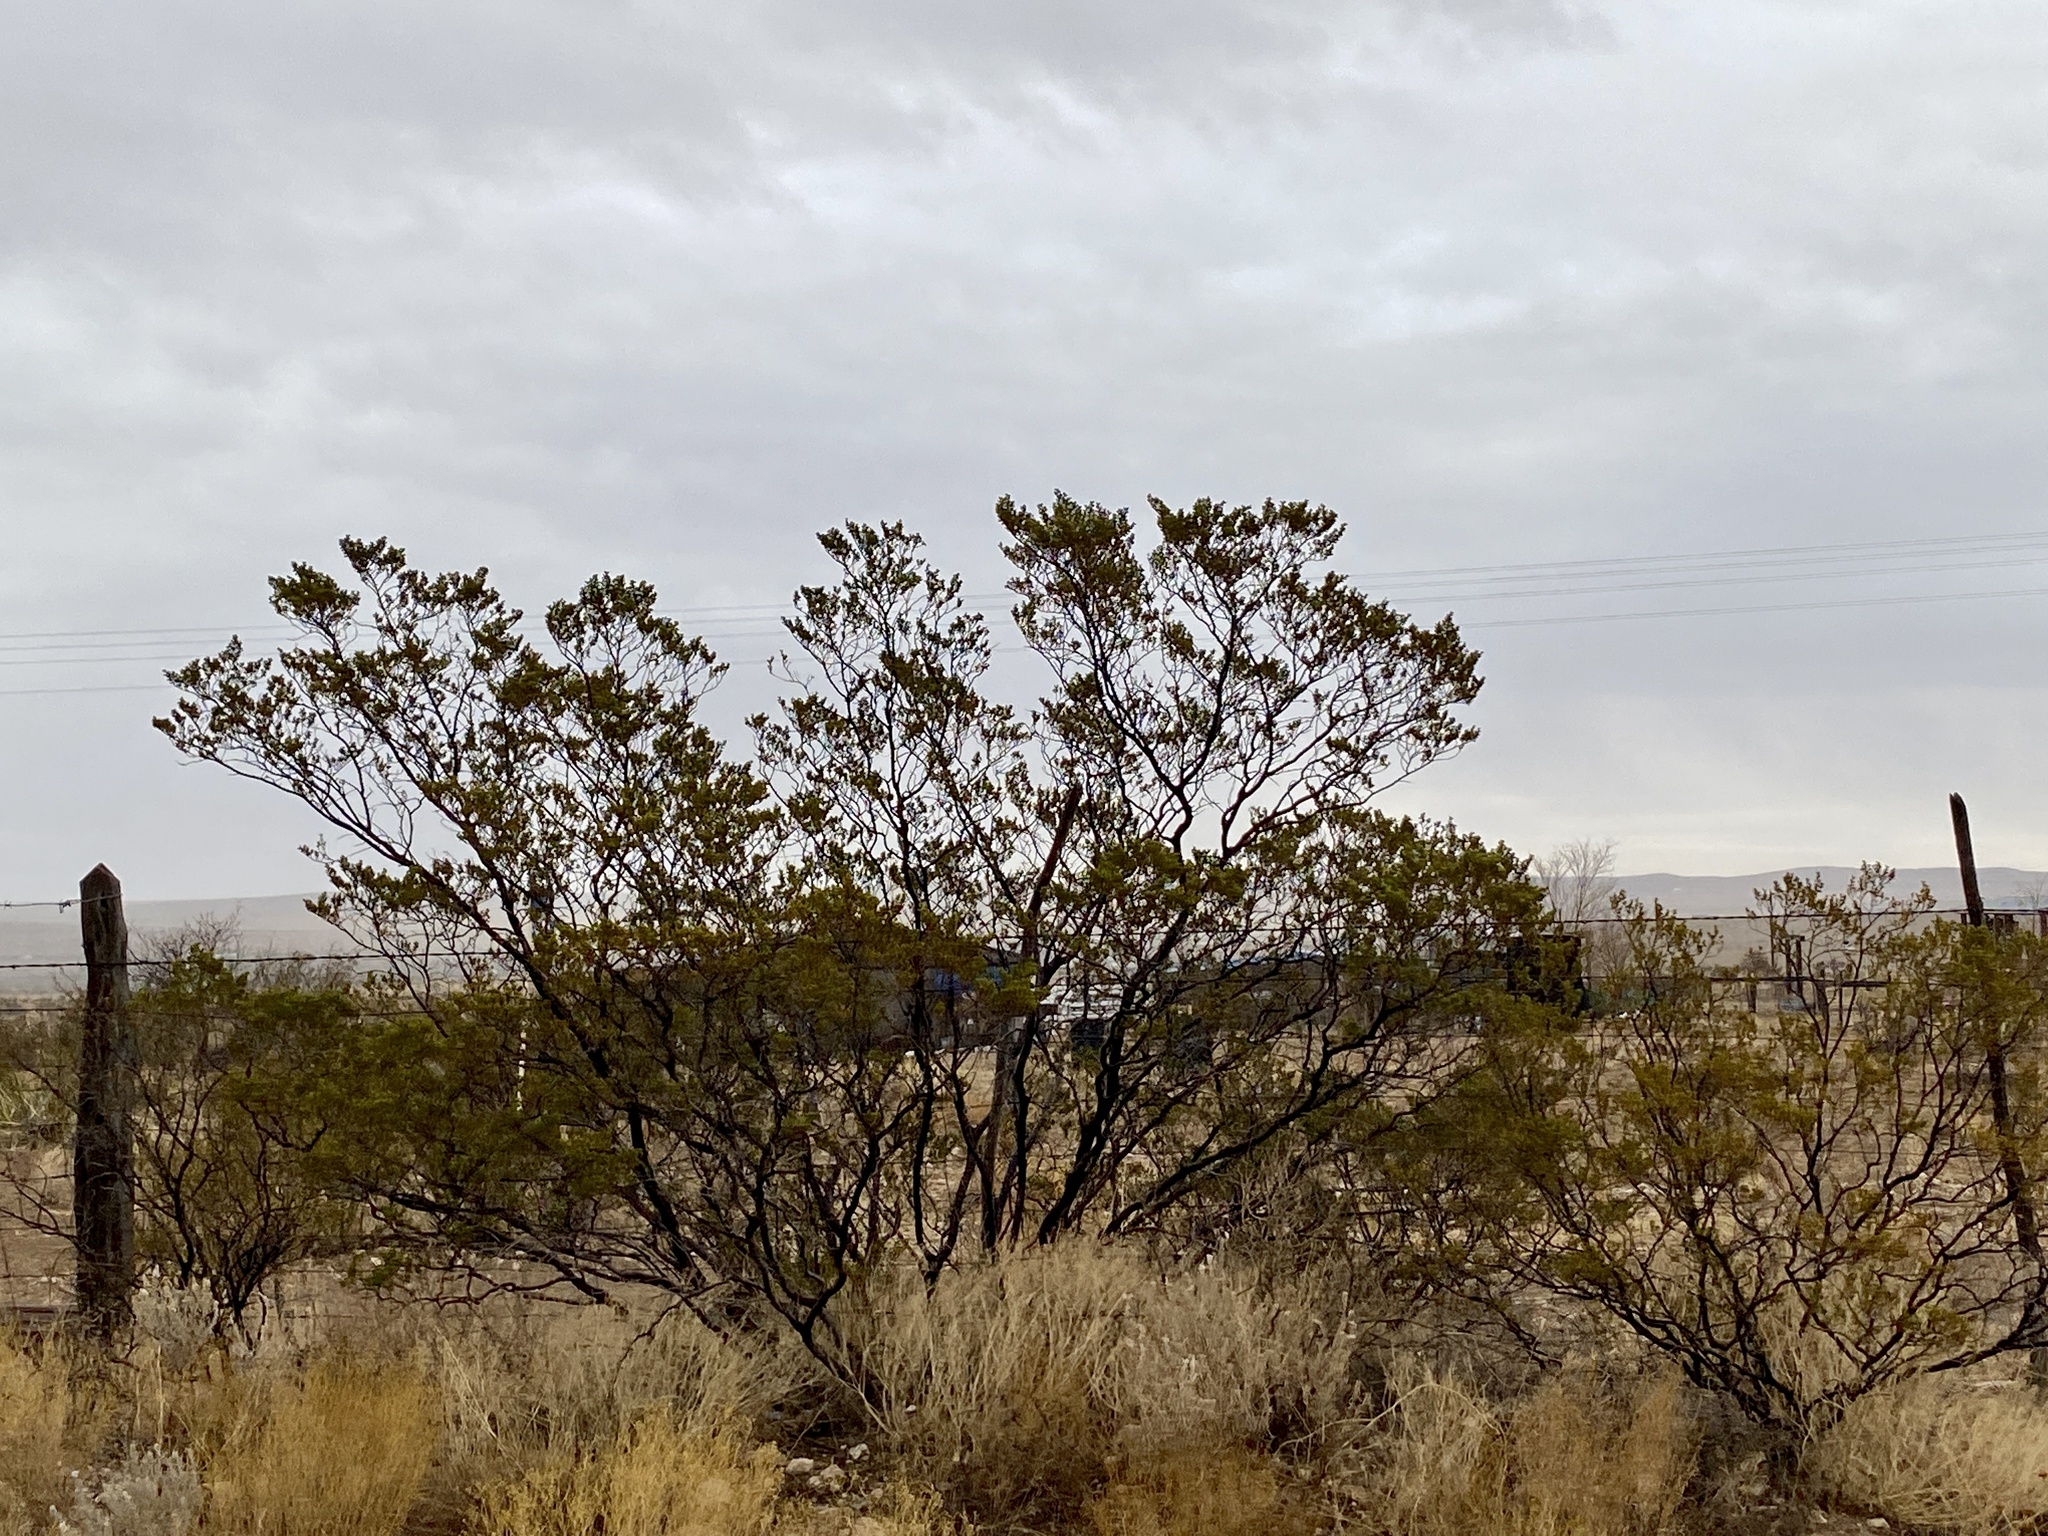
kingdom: Plantae
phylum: Tracheophyta
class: Magnoliopsida
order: Zygophyllales
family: Zygophyllaceae
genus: Larrea
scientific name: Larrea tridentata
